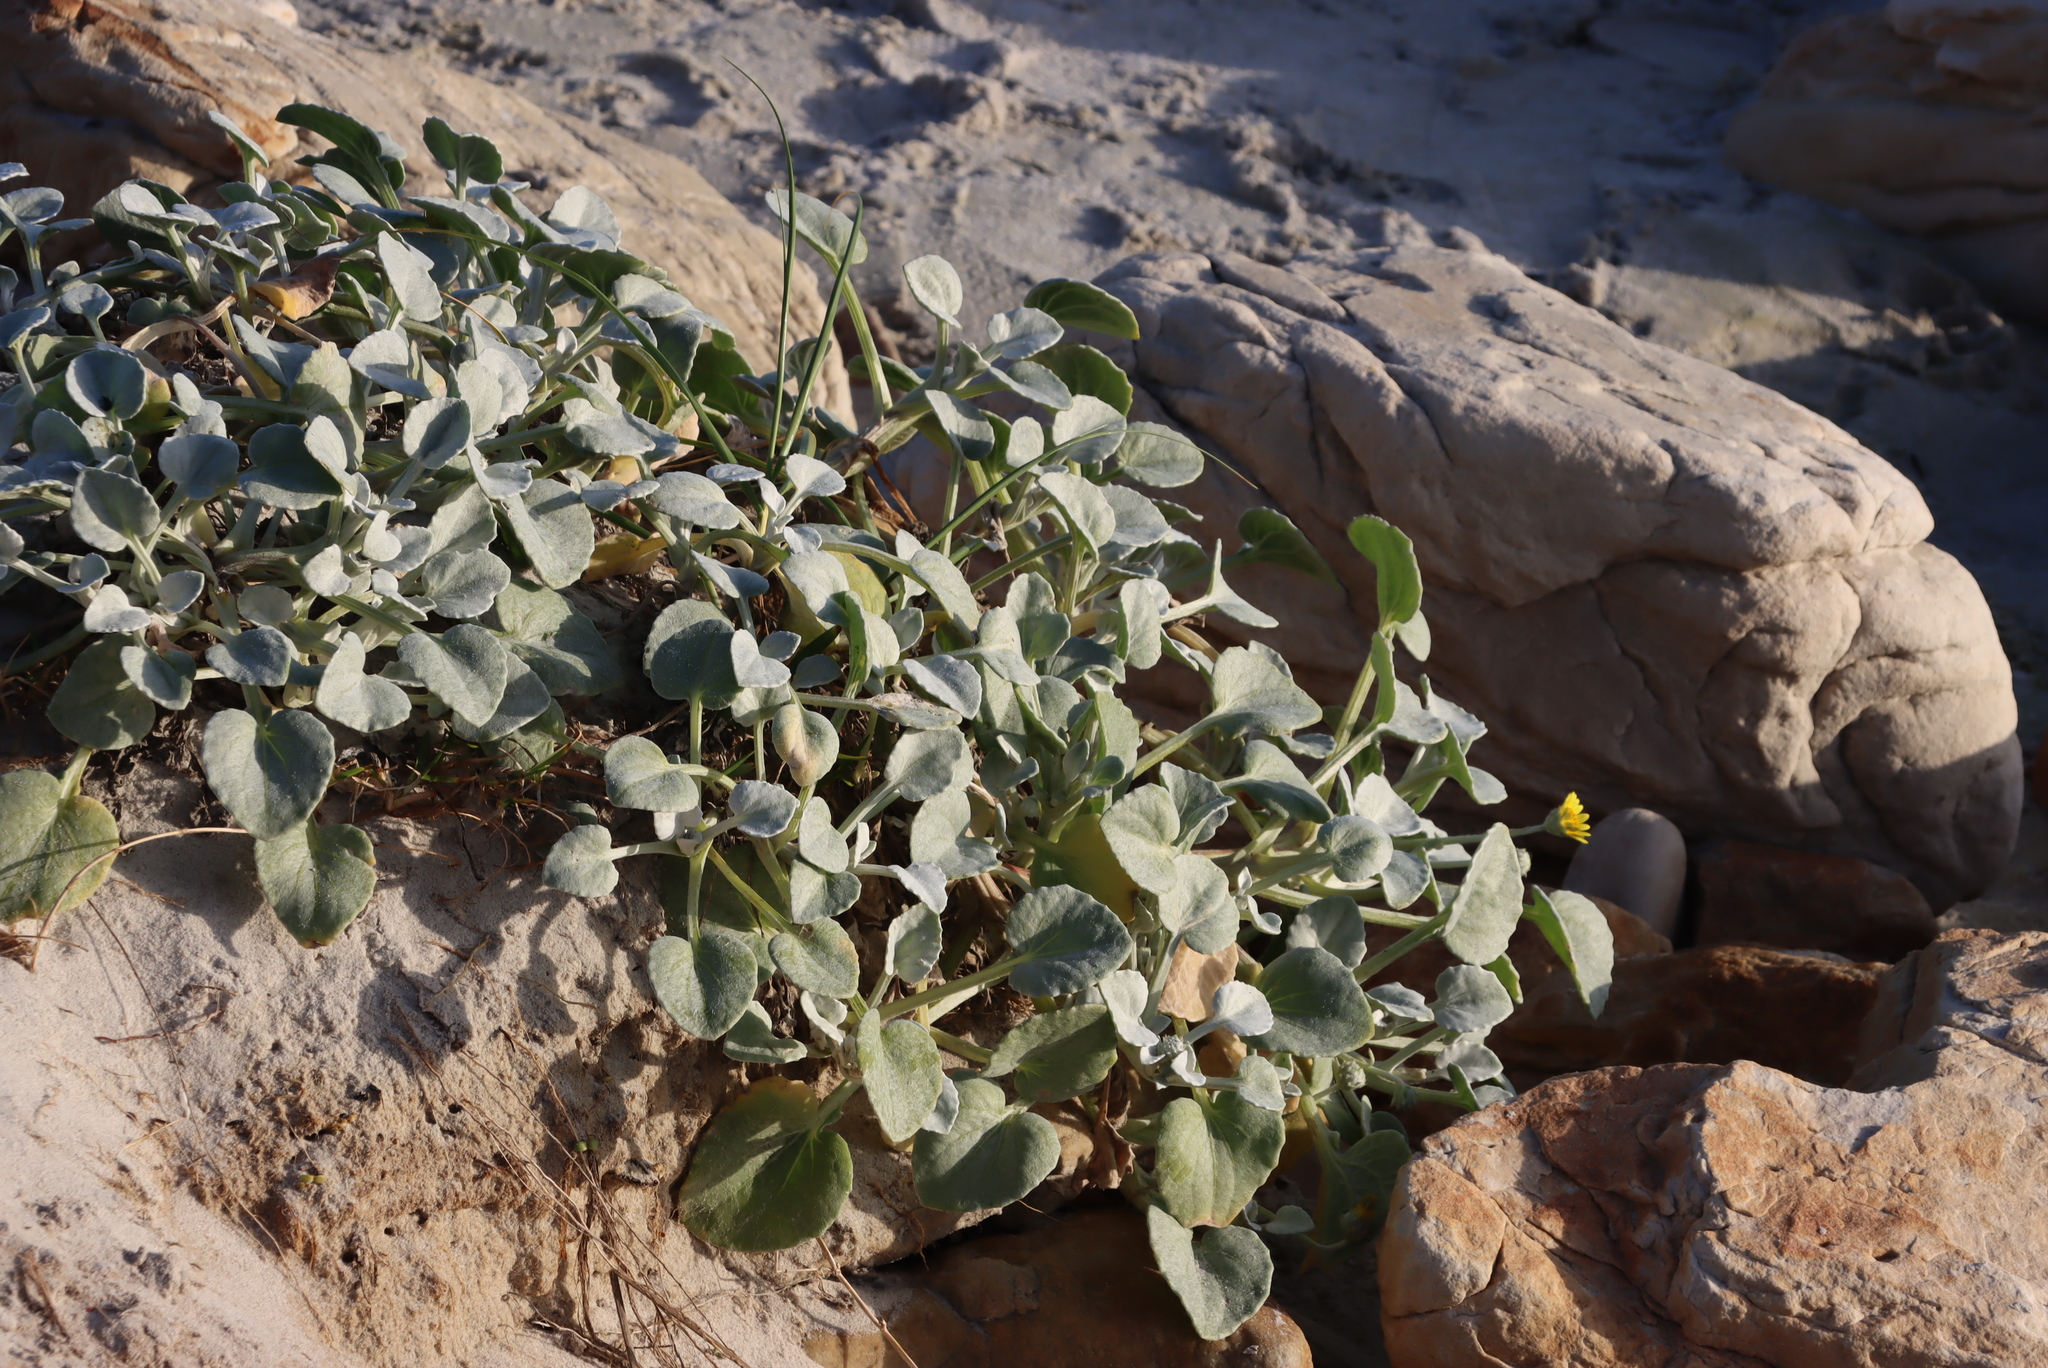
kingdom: Plantae
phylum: Tracheophyta
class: Magnoliopsida
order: Asterales
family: Asteraceae
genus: Arctotheca
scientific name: Arctotheca populifolia
